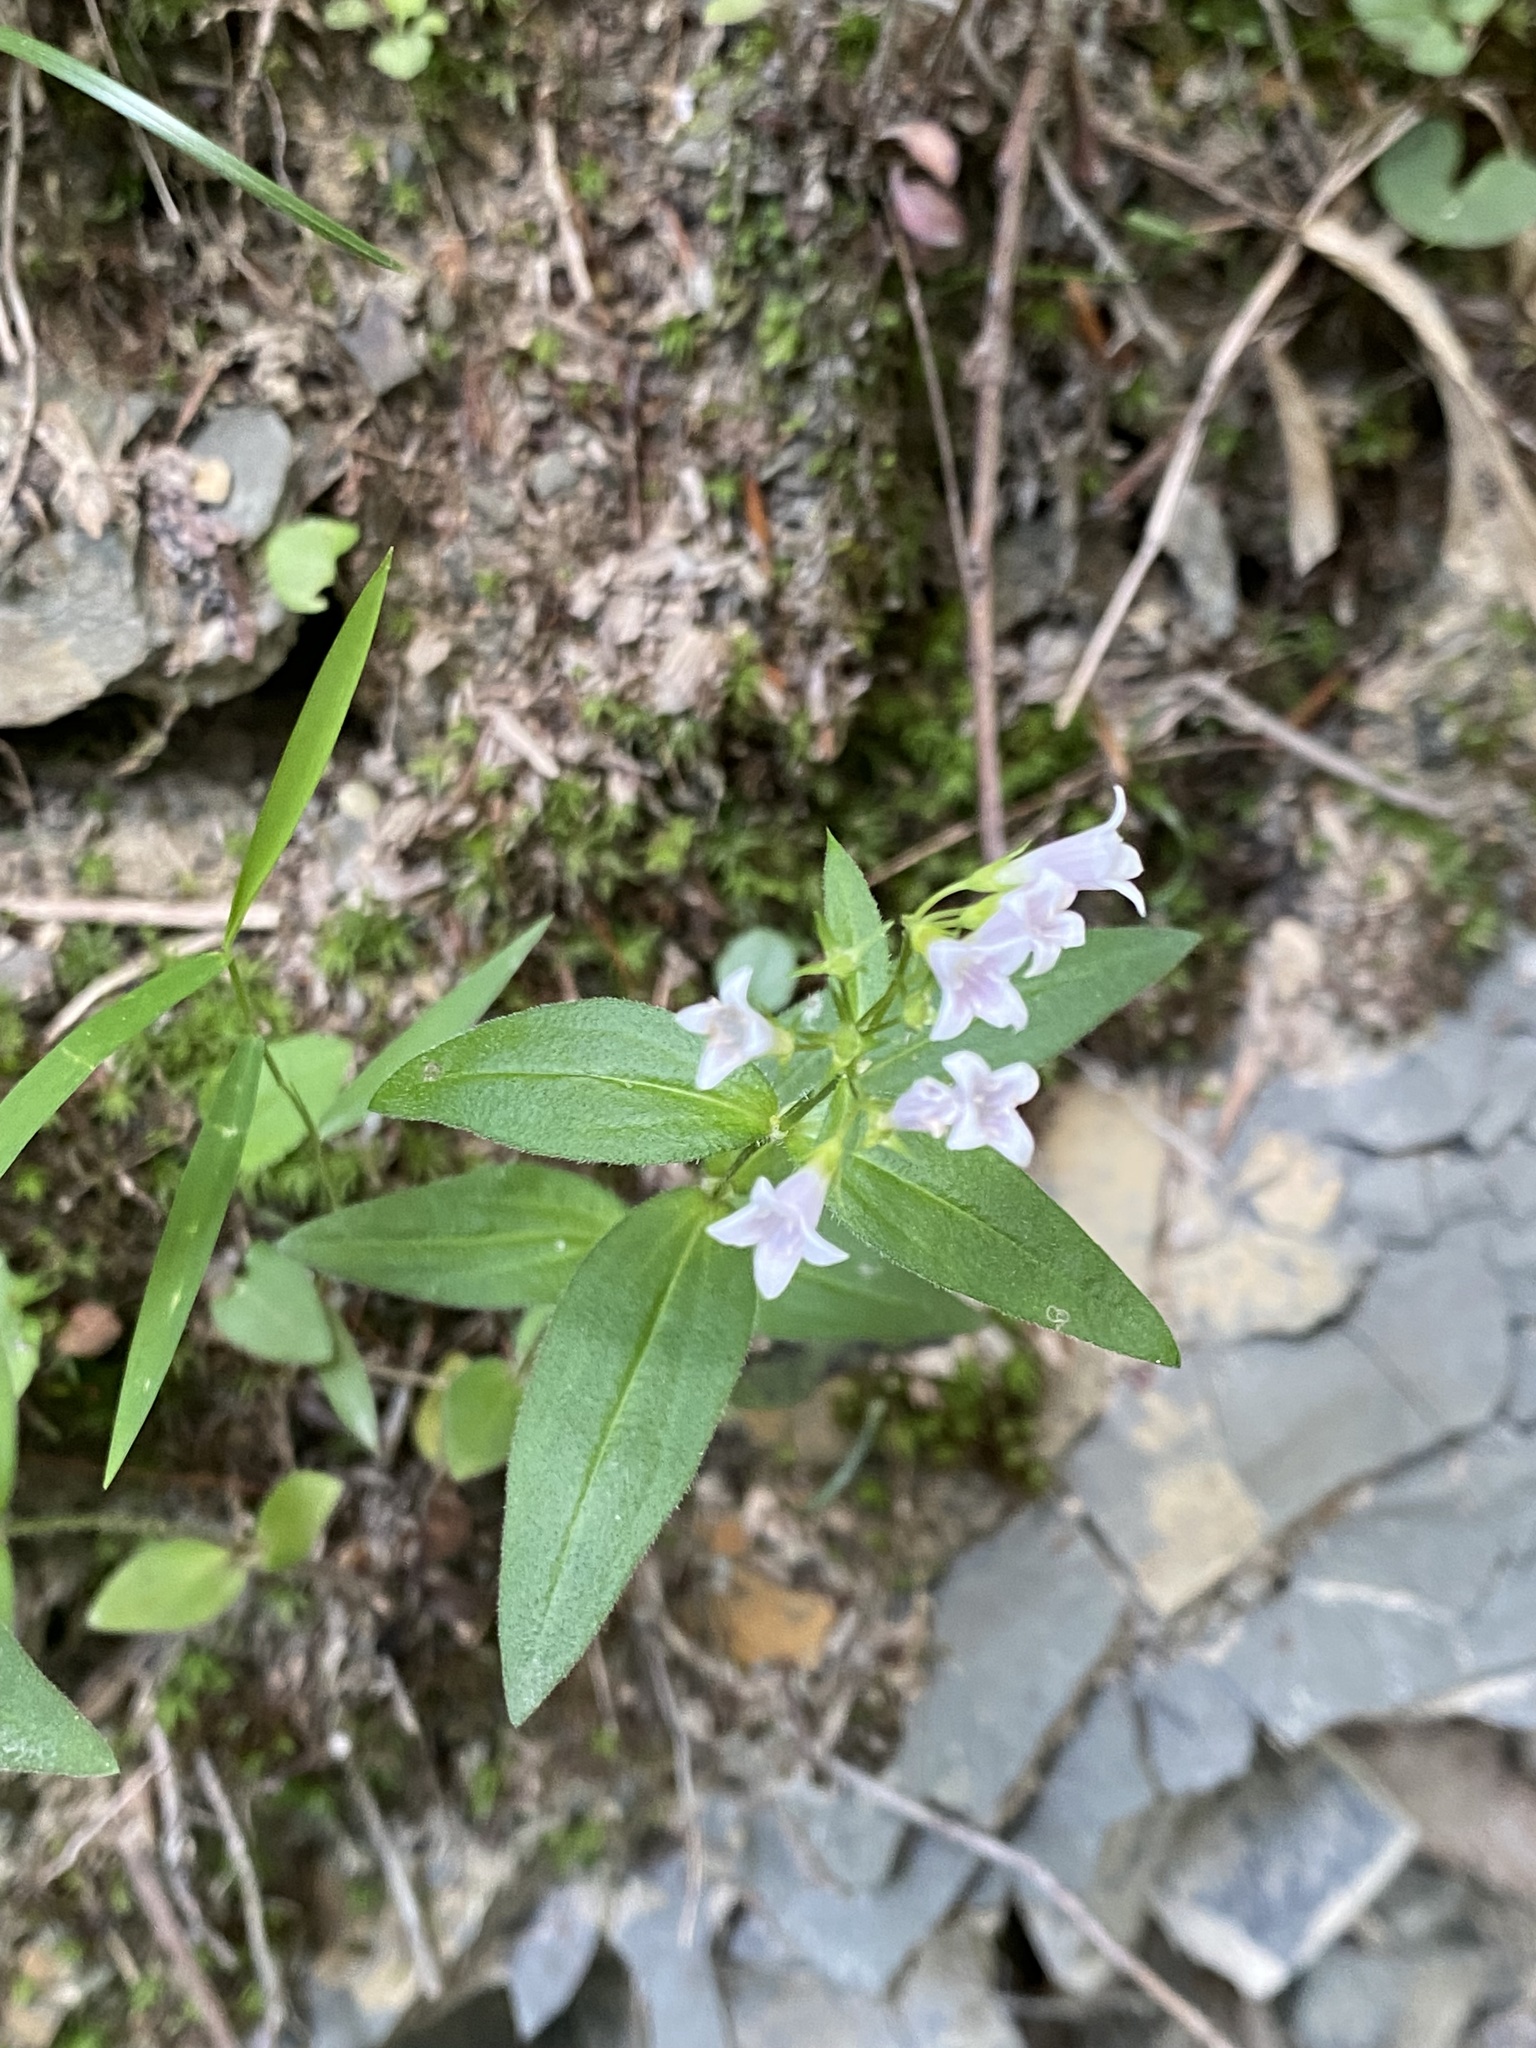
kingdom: Plantae
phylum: Tracheophyta
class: Magnoliopsida
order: Gentianales
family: Rubiaceae
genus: Houstonia
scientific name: Houstonia purpurea
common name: Summer bluet
